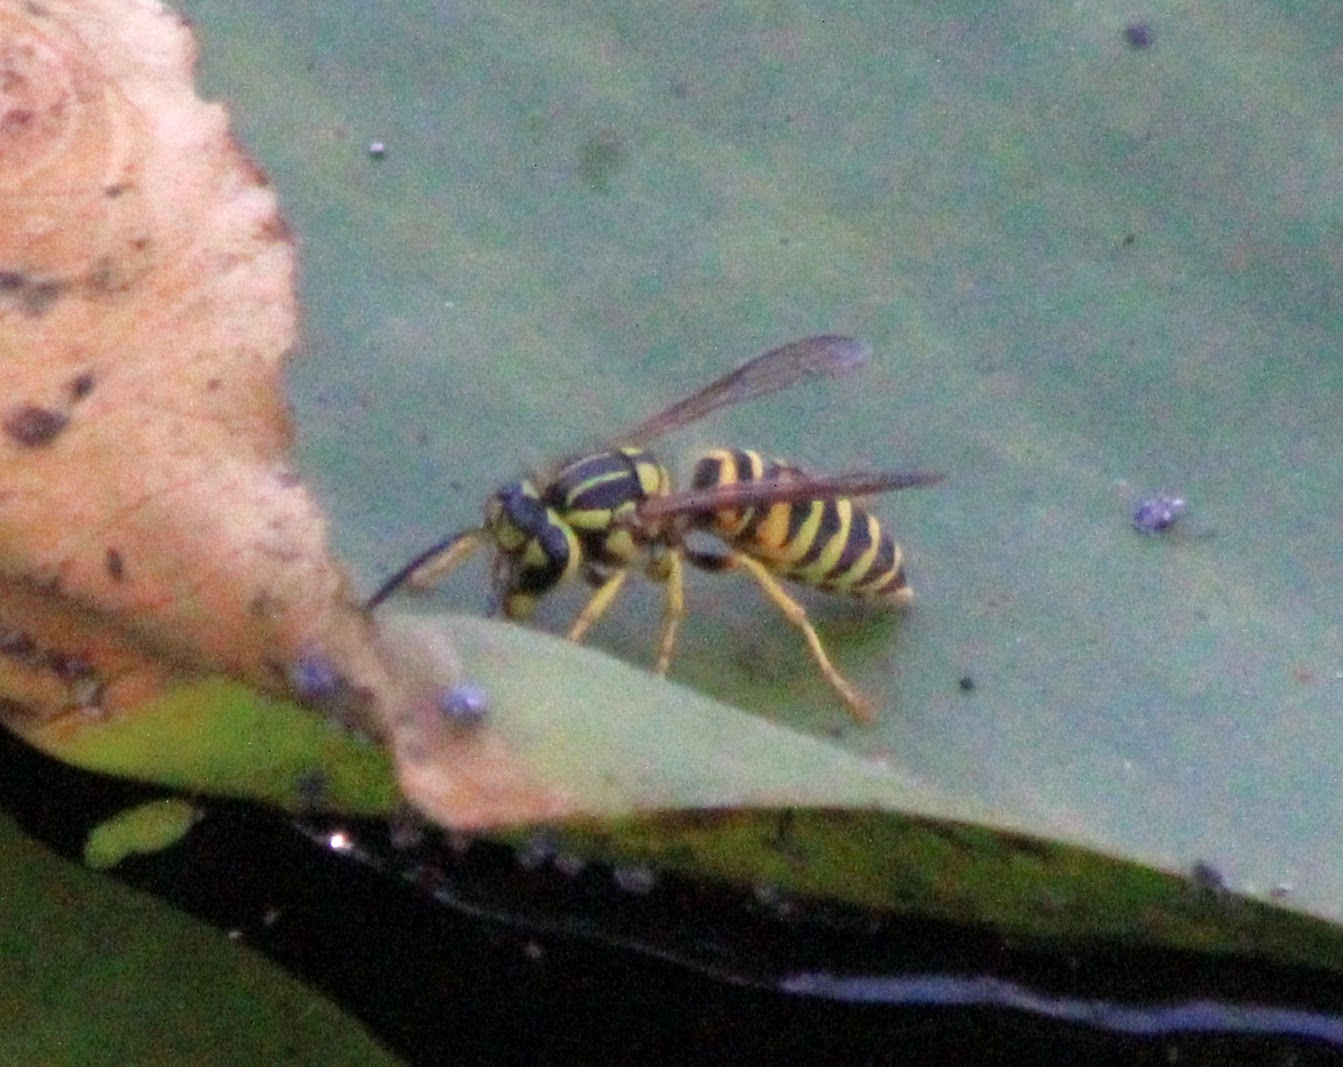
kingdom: Animalia
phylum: Arthropoda
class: Insecta
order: Hymenoptera
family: Vespidae
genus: Vespula
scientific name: Vespula squamosa
